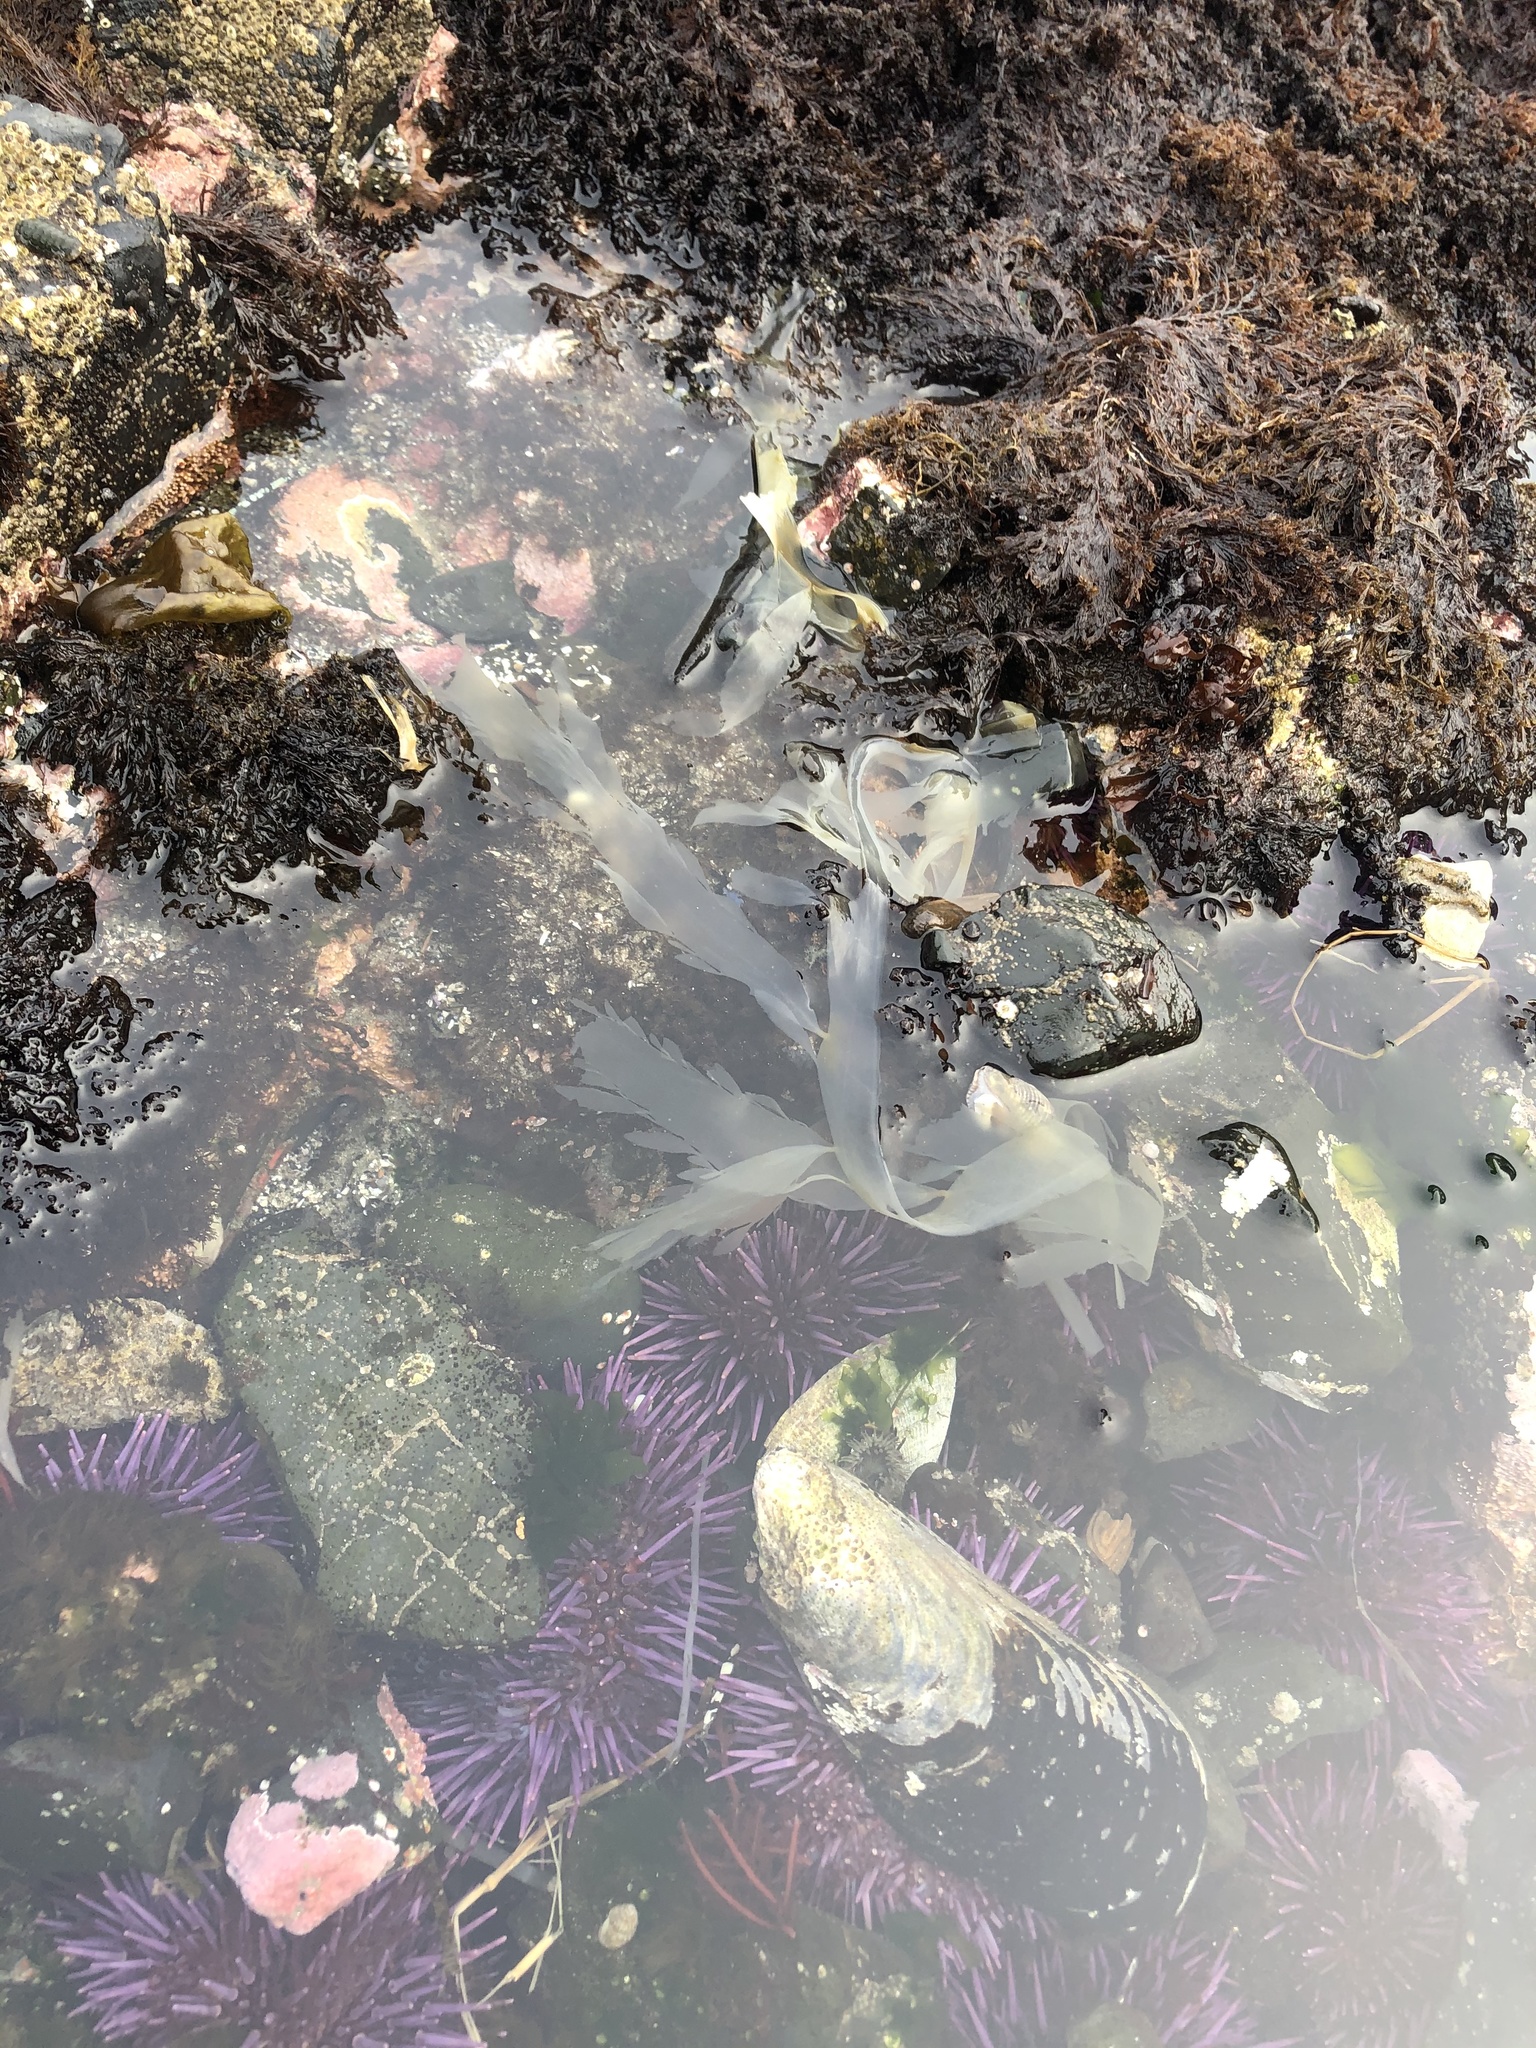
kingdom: Chromista
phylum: Ochrophyta
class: Phaeophyceae
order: Desmarestiales
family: Desmarestiaceae
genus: Desmarestia
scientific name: Desmarestia ligulata
